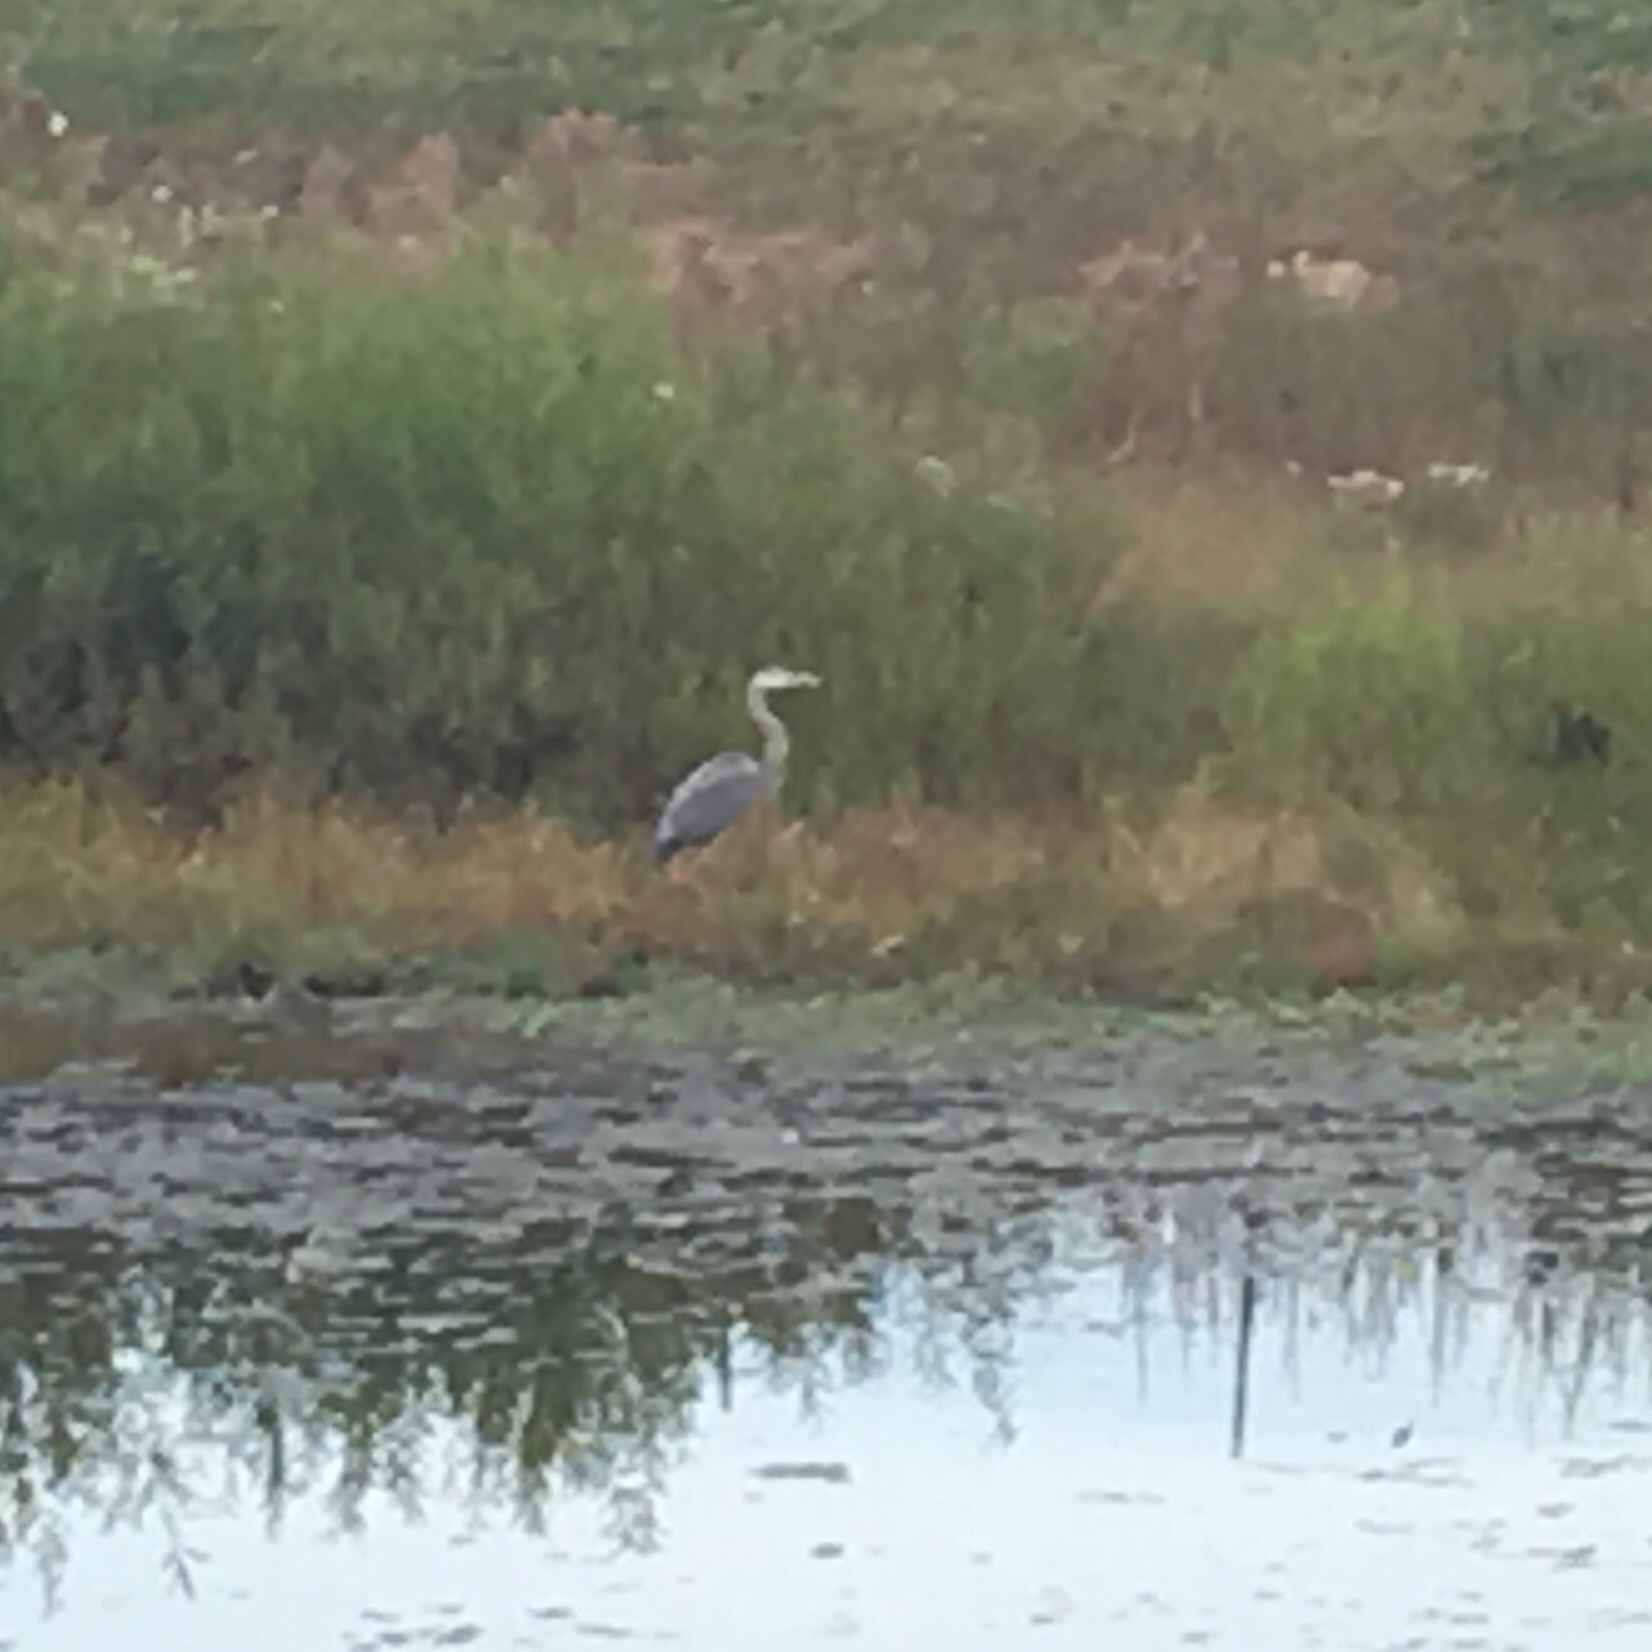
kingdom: Animalia
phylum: Chordata
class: Aves
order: Pelecaniformes
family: Ardeidae
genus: Ardea
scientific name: Ardea herodias
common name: Great blue heron
